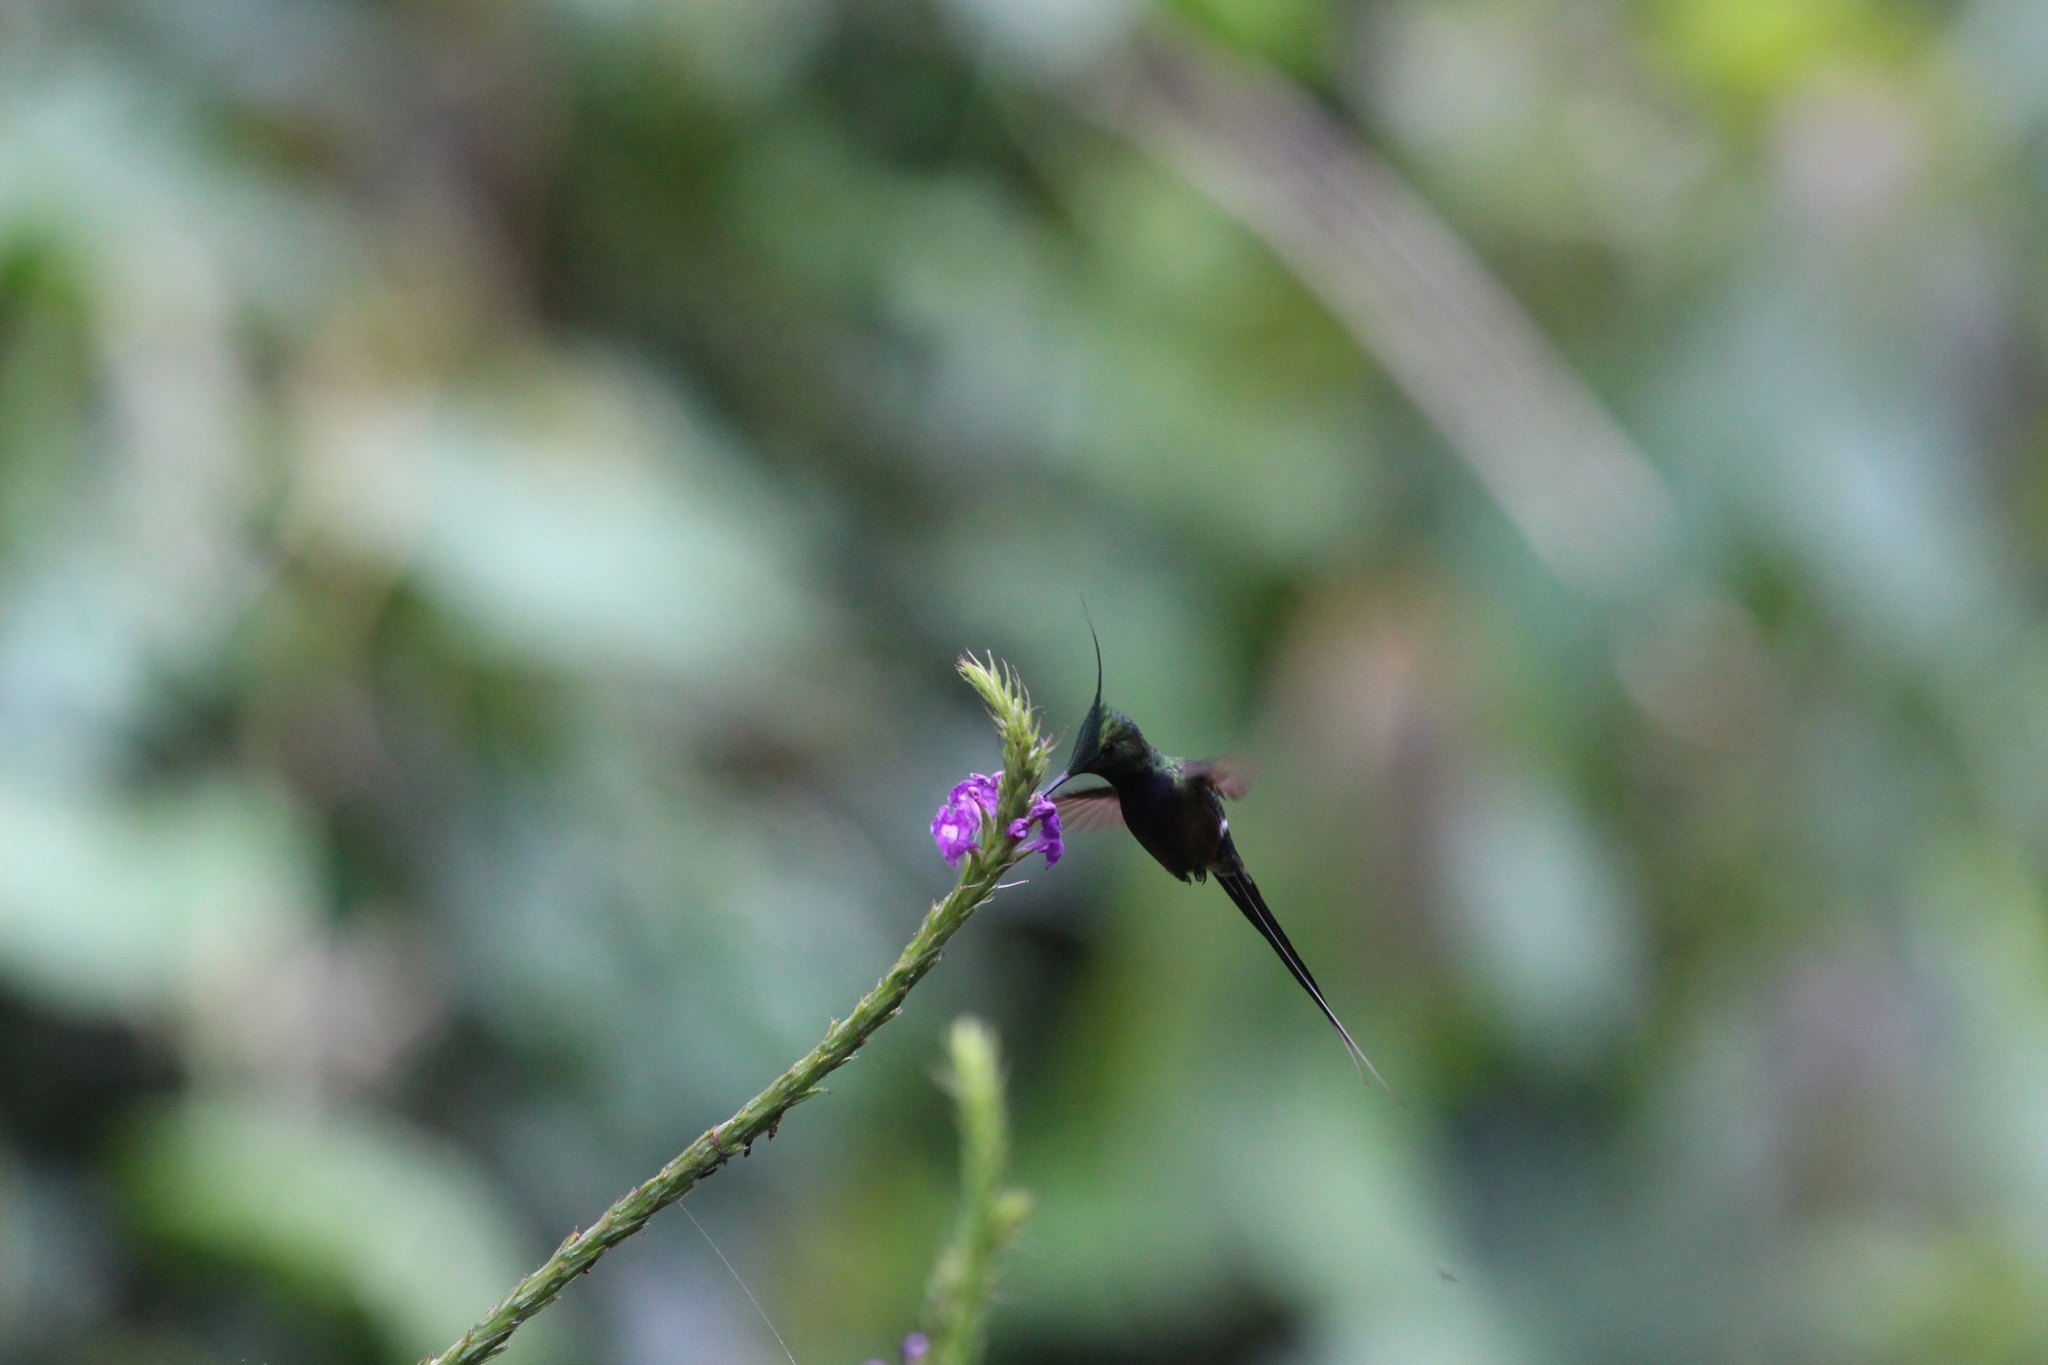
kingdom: Animalia
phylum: Chordata
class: Aves
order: Apodiformes
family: Trochilidae
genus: Discosura
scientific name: Discosura popelairii
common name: Wire-crested thorntail
